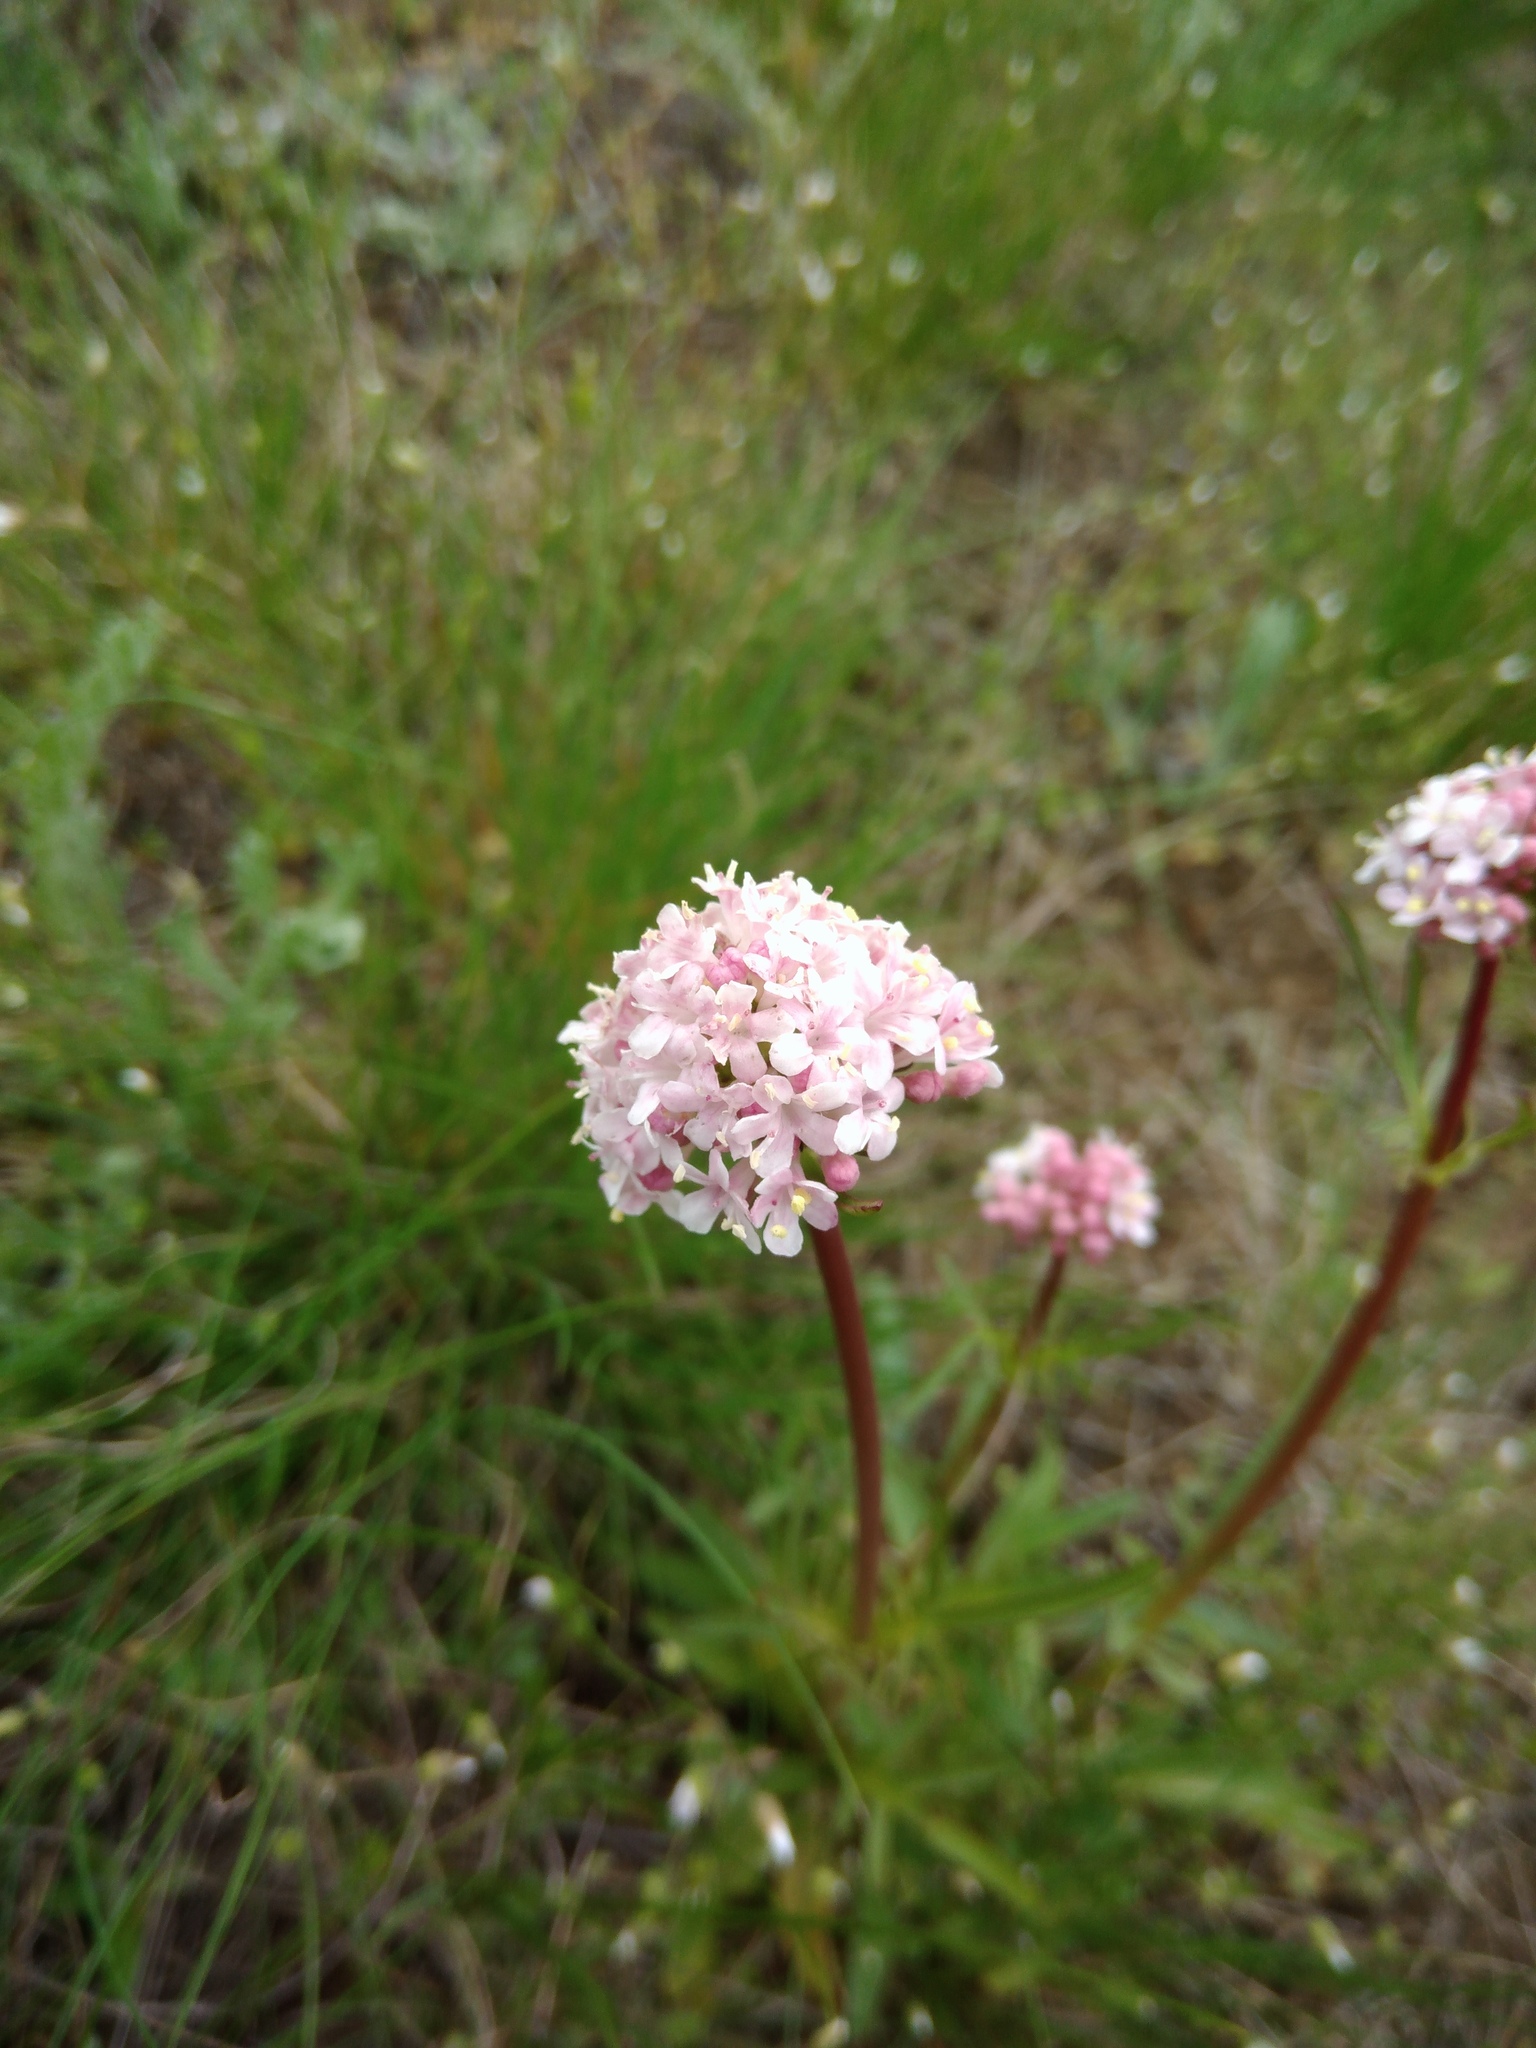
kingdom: Plantae
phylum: Tracheophyta
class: Magnoliopsida
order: Dipsacales
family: Caprifoliaceae
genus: Valeriana
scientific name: Valeriana tuberosa
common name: Tuberous valerian
